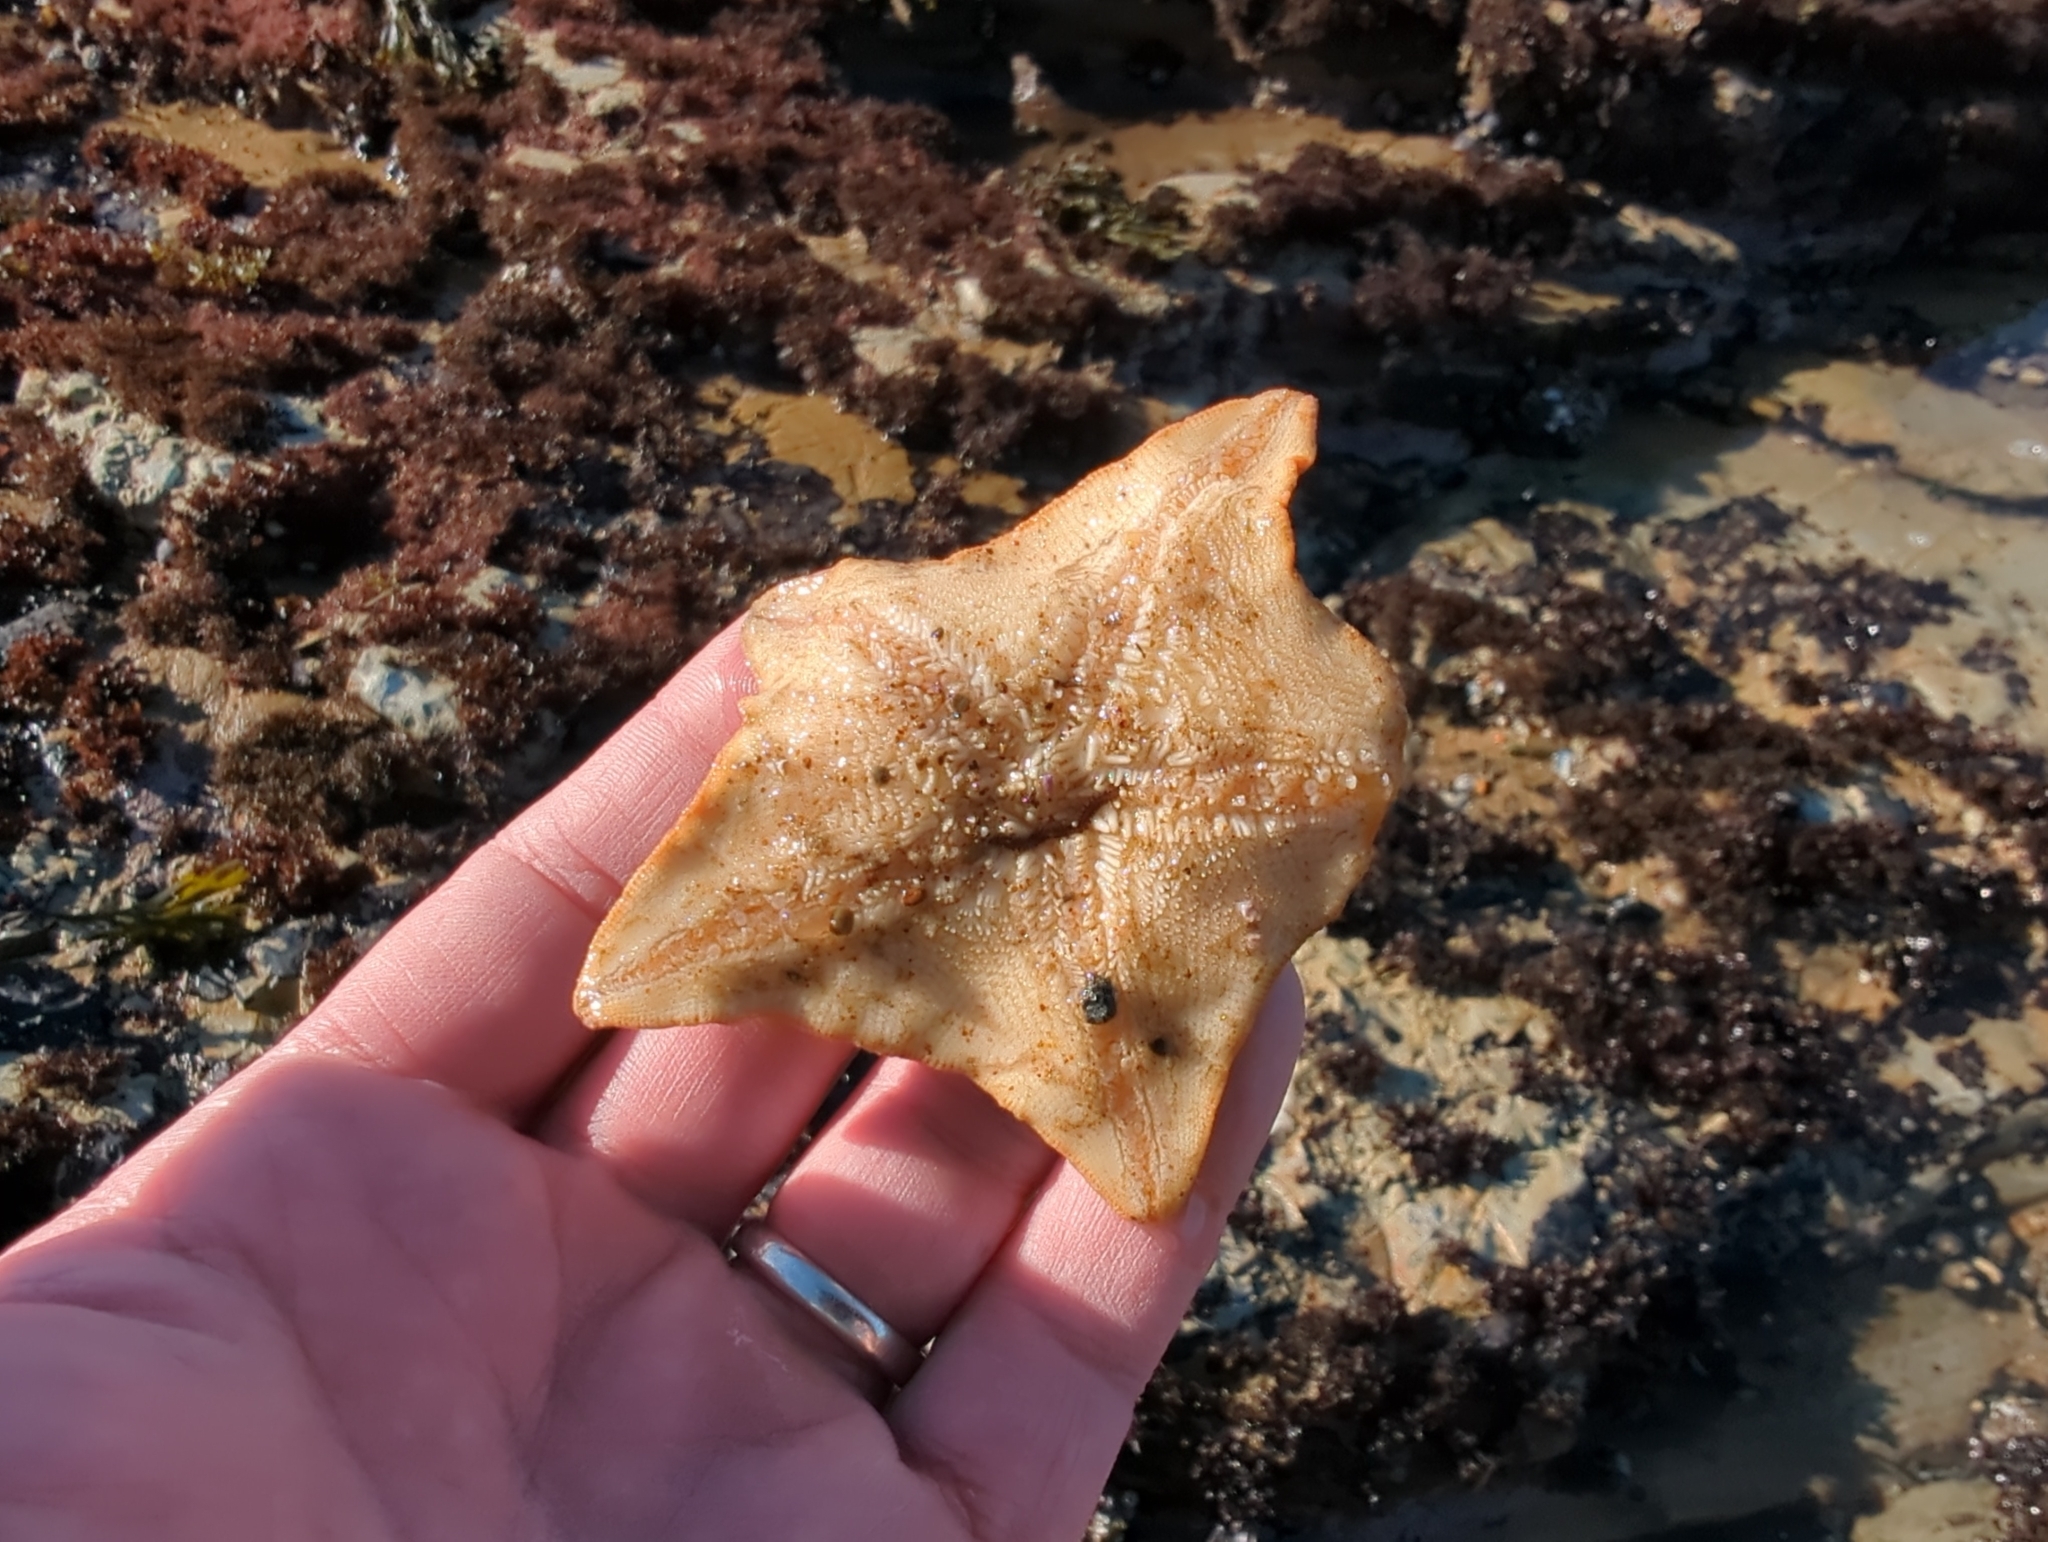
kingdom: Animalia
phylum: Echinodermata
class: Asteroidea
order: Valvatida
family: Asterinidae
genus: Patiria
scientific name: Patiria miniata
